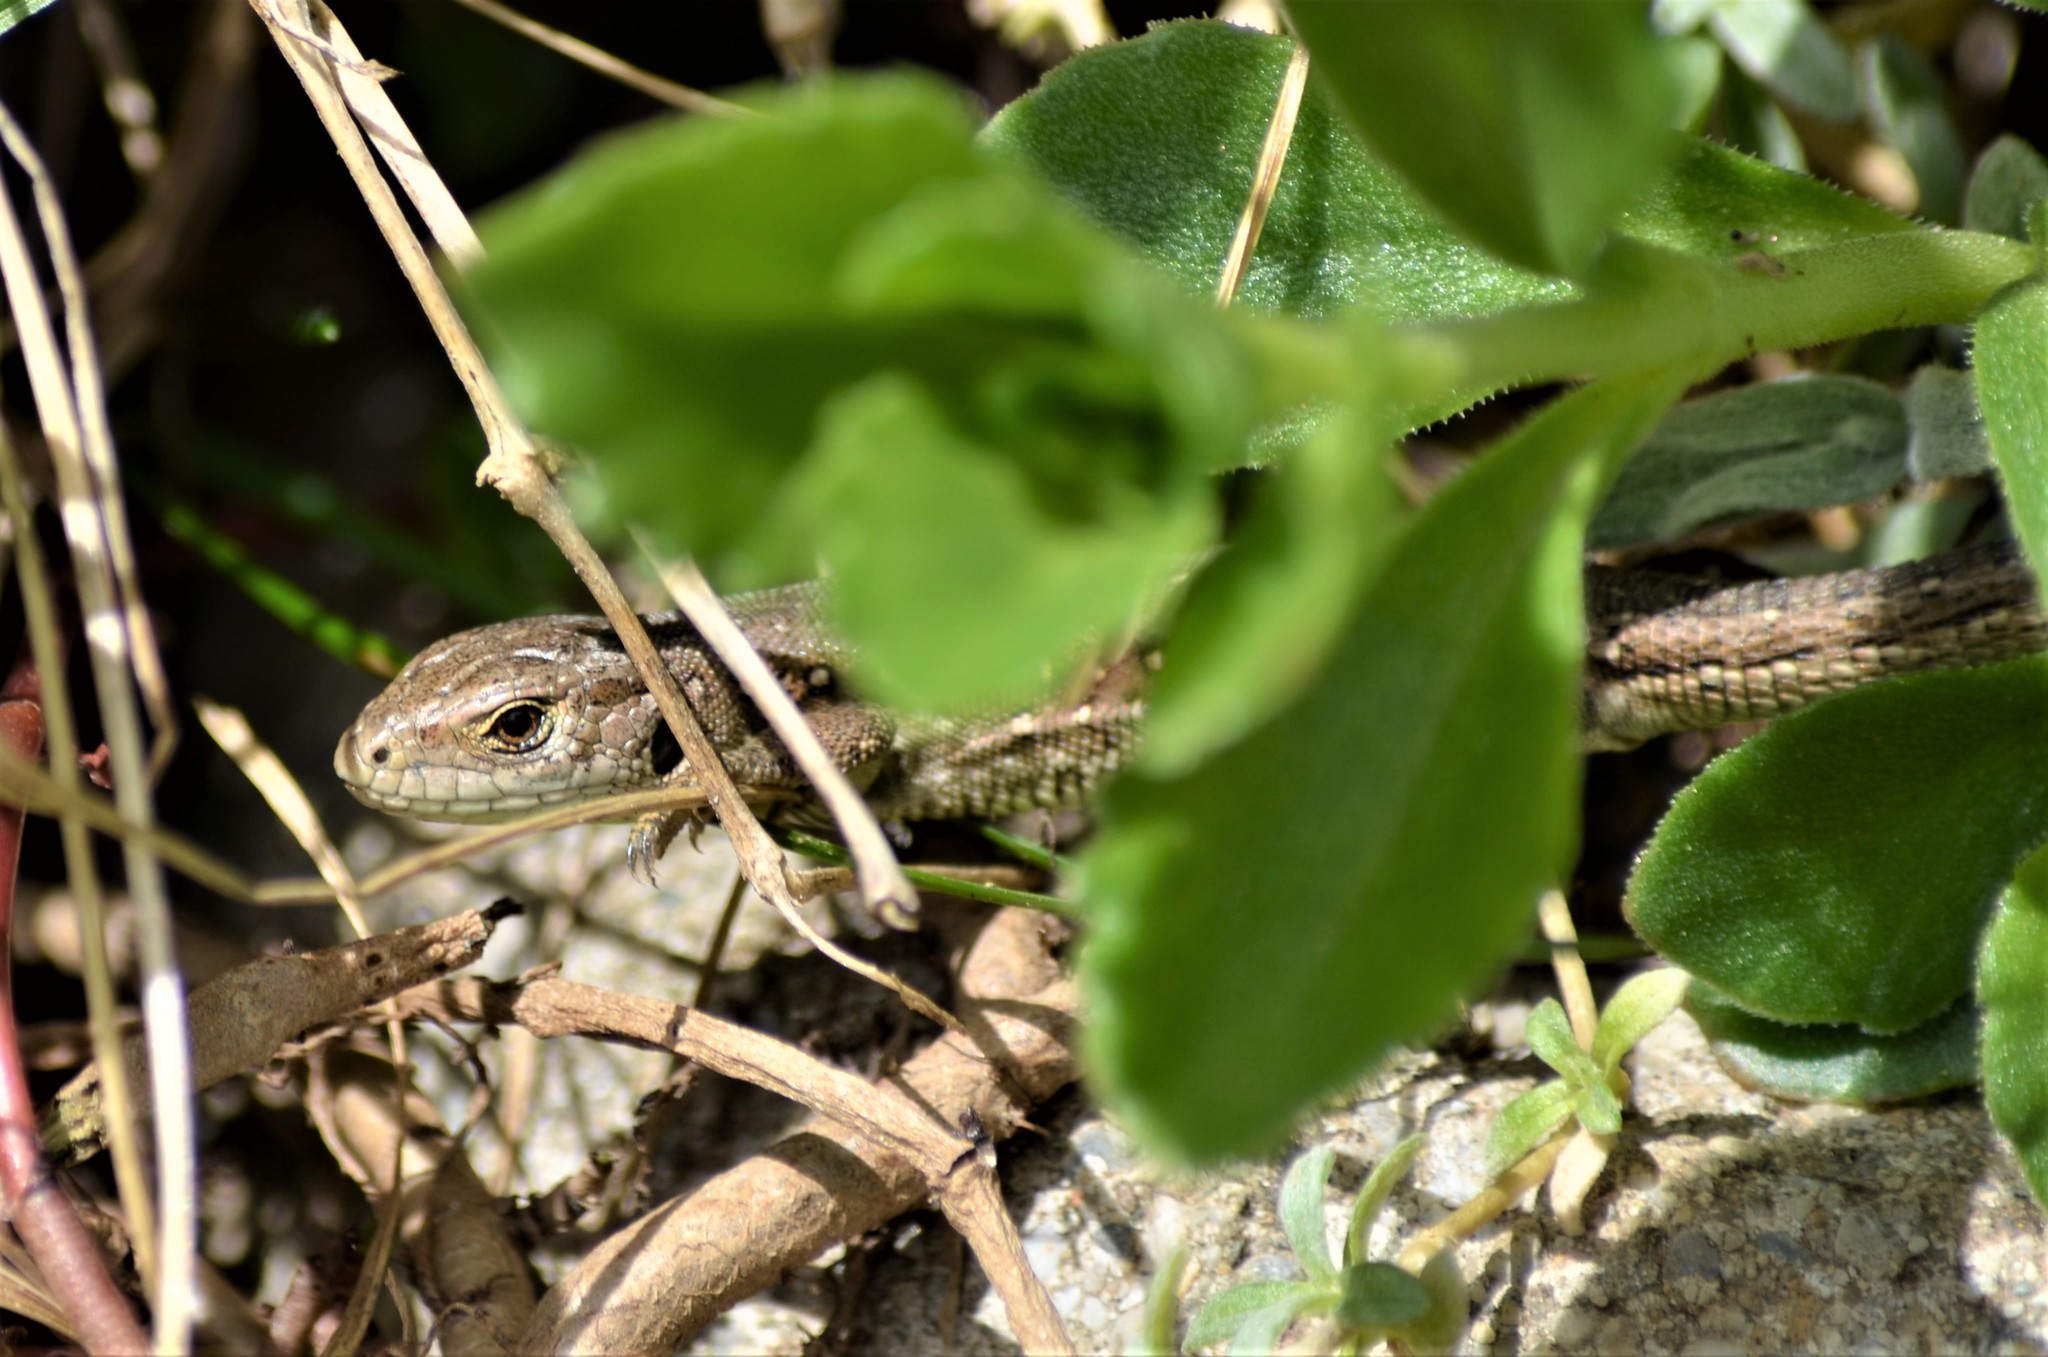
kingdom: Animalia
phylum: Chordata
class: Squamata
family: Lacertidae
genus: Lacerta
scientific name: Lacerta agilis
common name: Sand lizard
